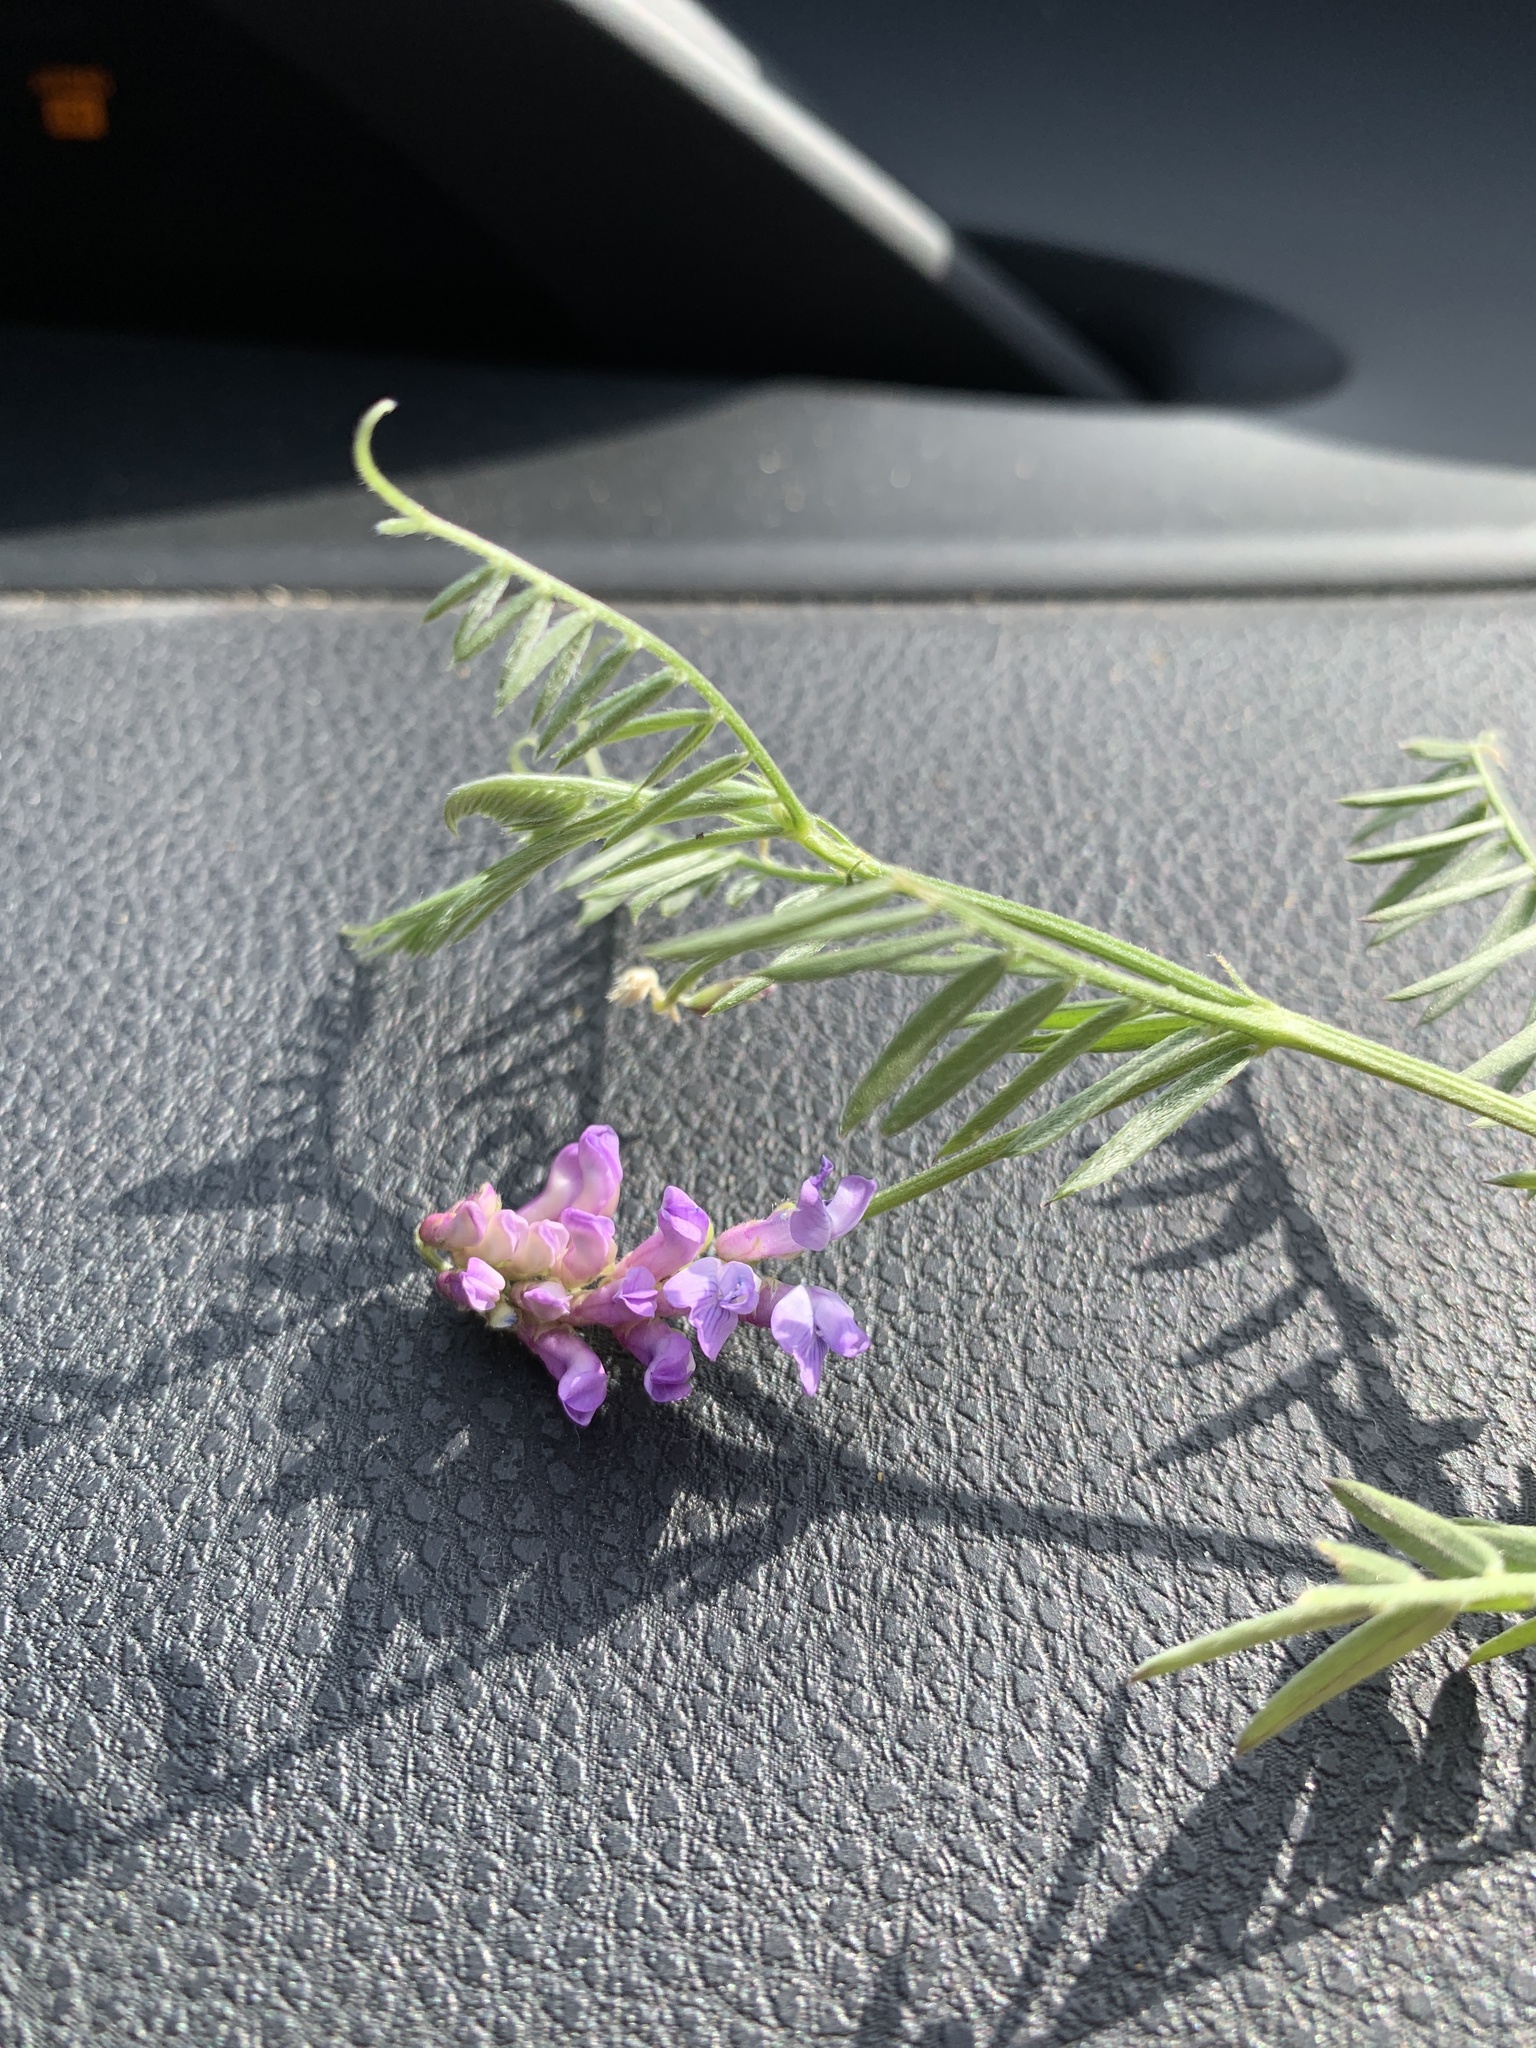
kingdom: Plantae
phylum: Tracheophyta
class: Magnoliopsida
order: Fabales
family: Fabaceae
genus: Vicia
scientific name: Vicia cracca
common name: Bird vetch
